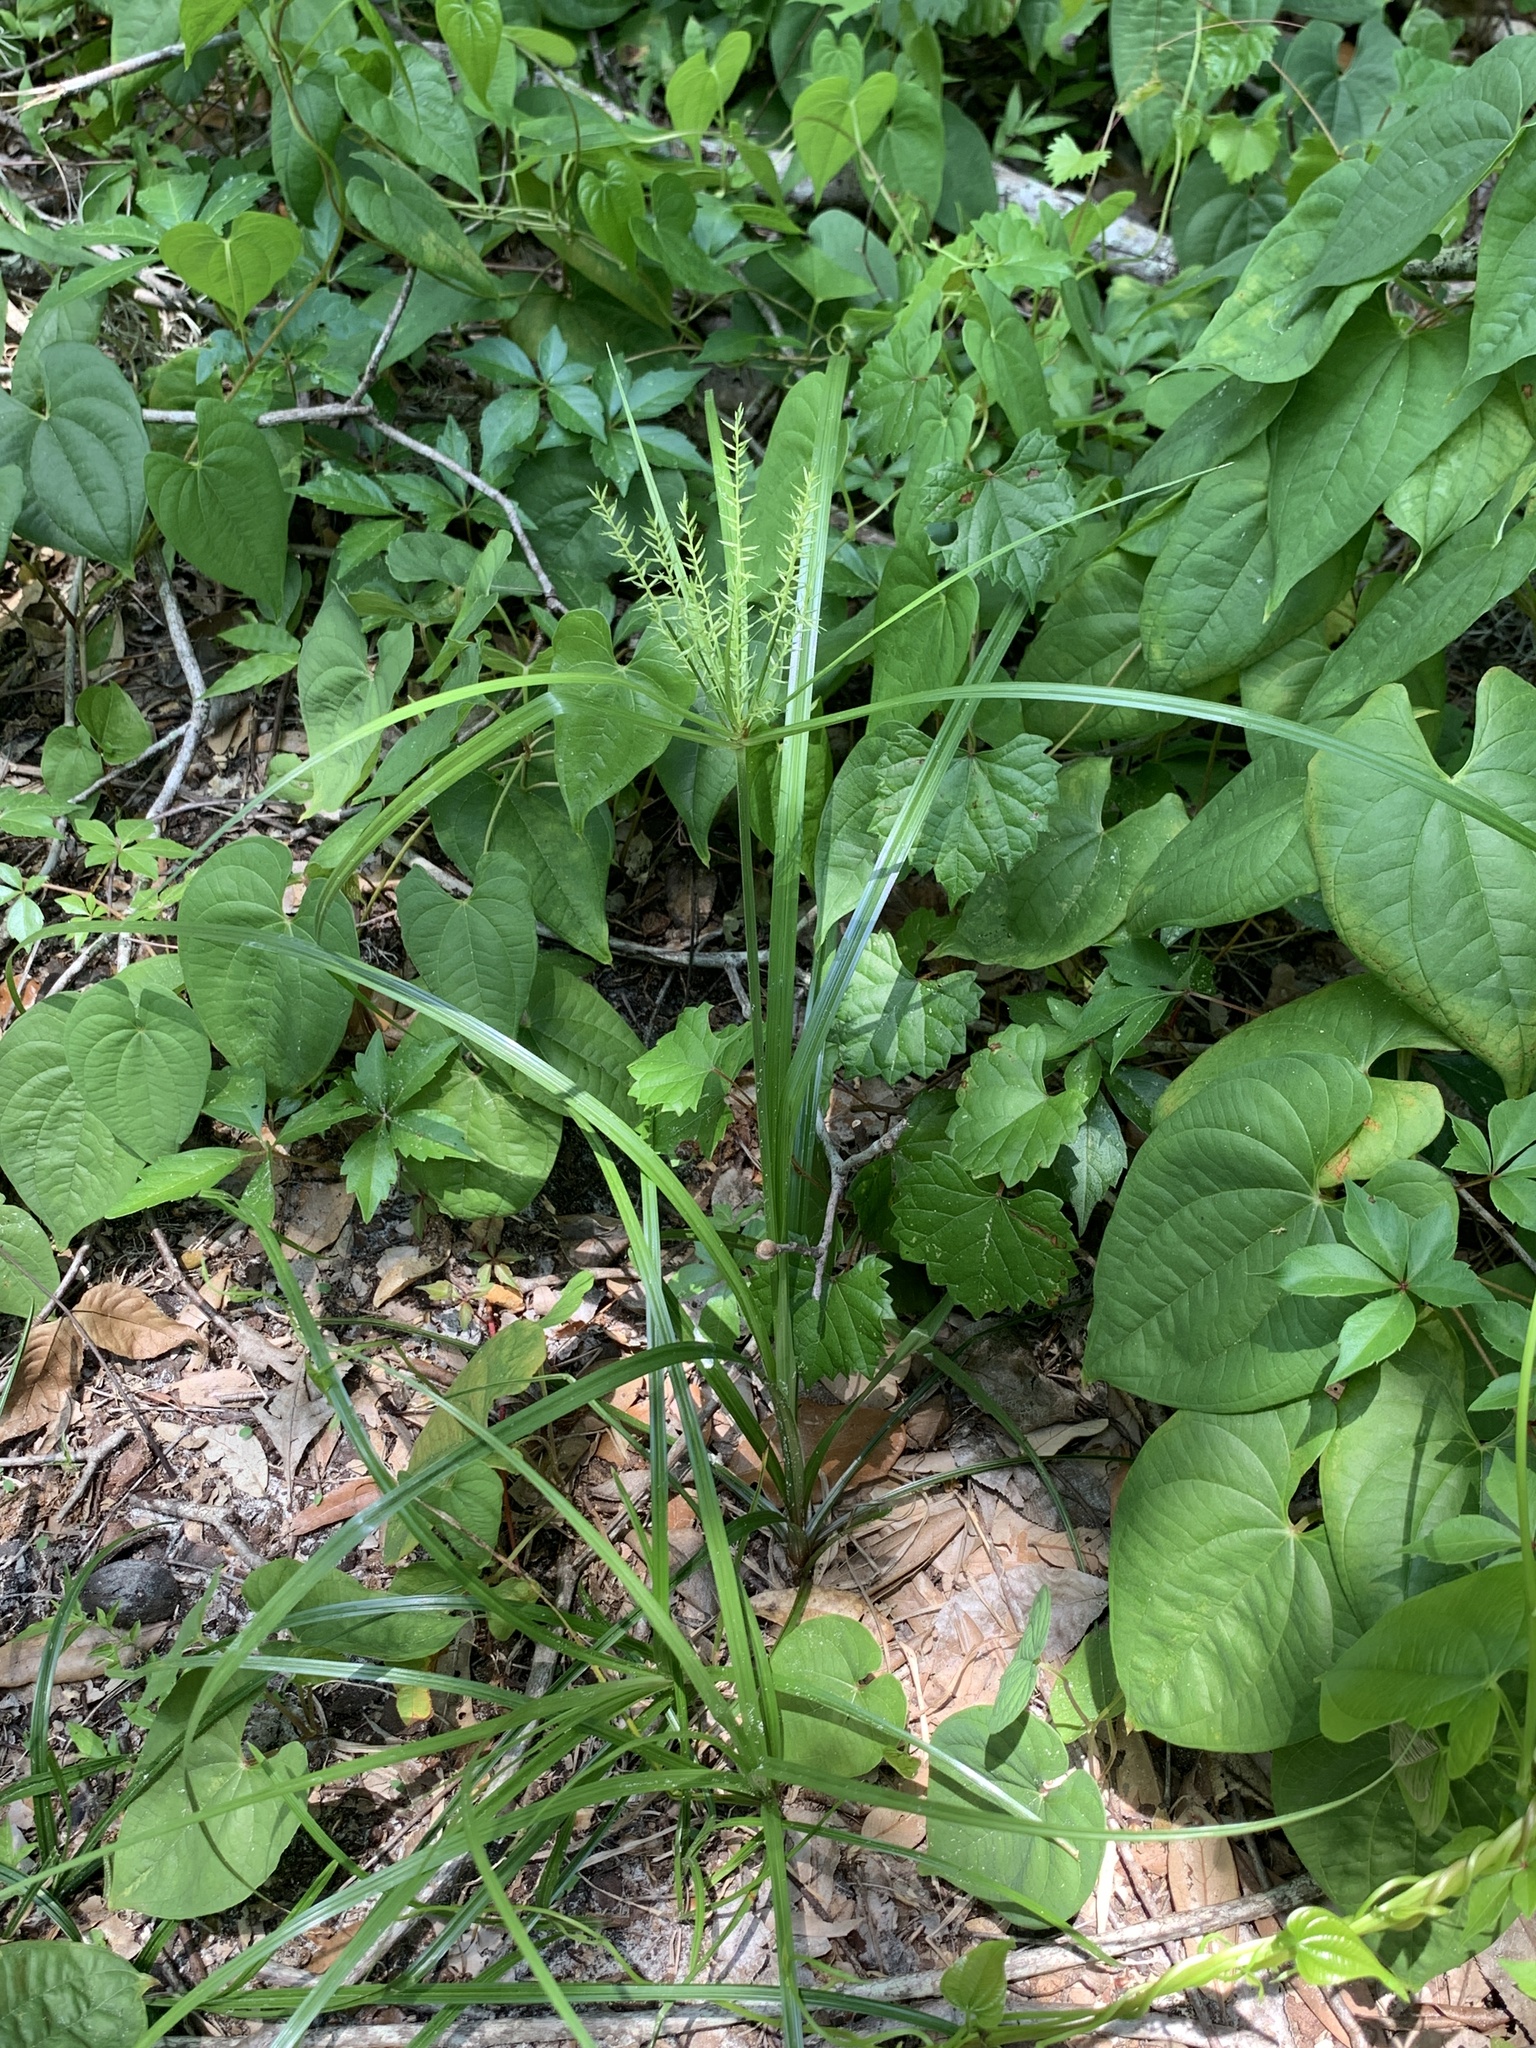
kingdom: Plantae
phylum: Tracheophyta
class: Liliopsida
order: Poales
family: Cyperaceae
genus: Cyperus
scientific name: Cyperus tetragonus
